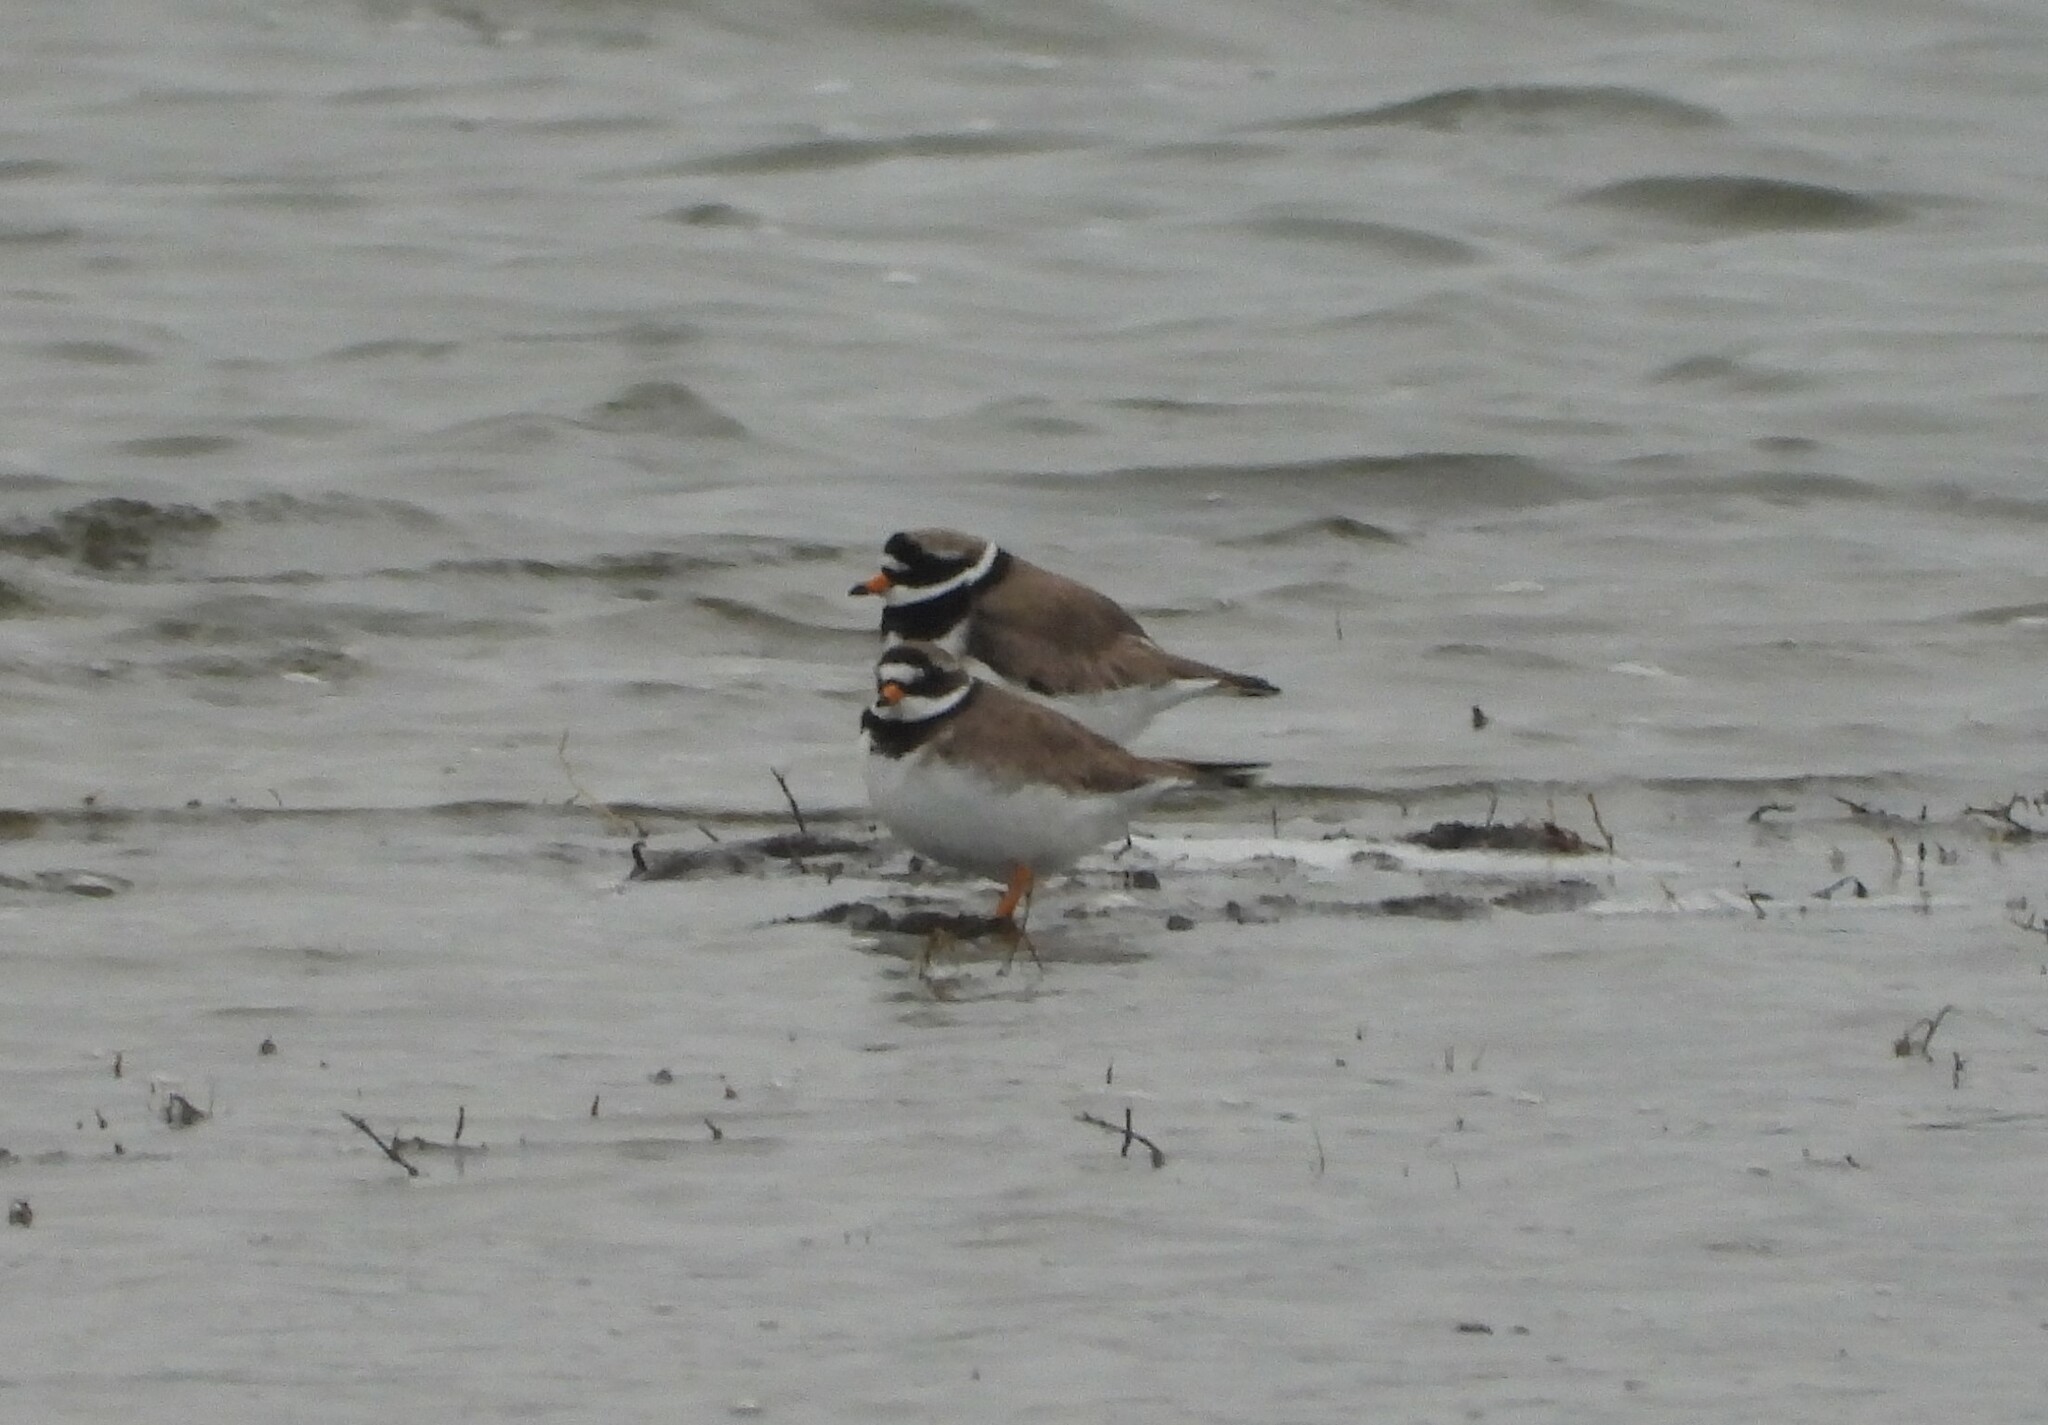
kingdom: Animalia
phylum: Chordata
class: Aves
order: Charadriiformes
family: Charadriidae
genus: Charadrius
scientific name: Charadrius hiaticula
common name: Common ringed plover
